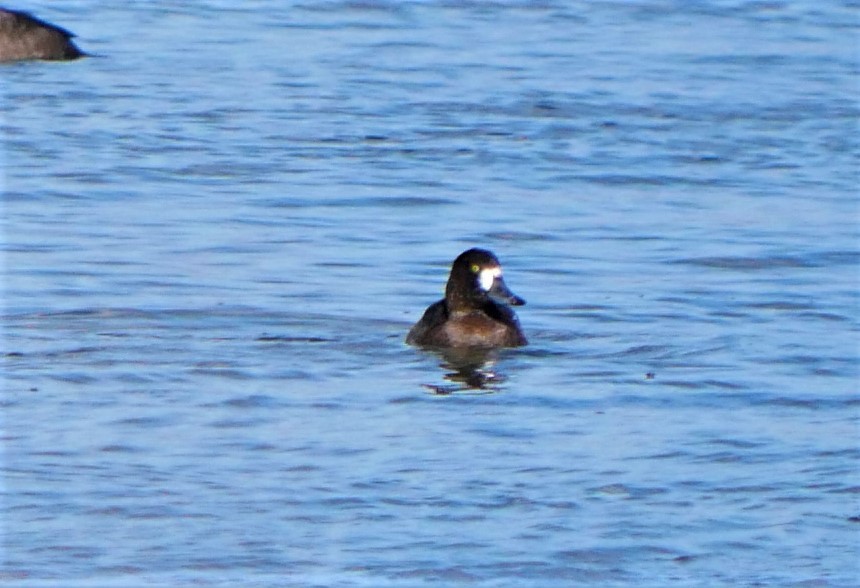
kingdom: Animalia
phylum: Chordata
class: Aves
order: Anseriformes
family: Anatidae
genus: Aythya
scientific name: Aythya marila
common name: Greater scaup
